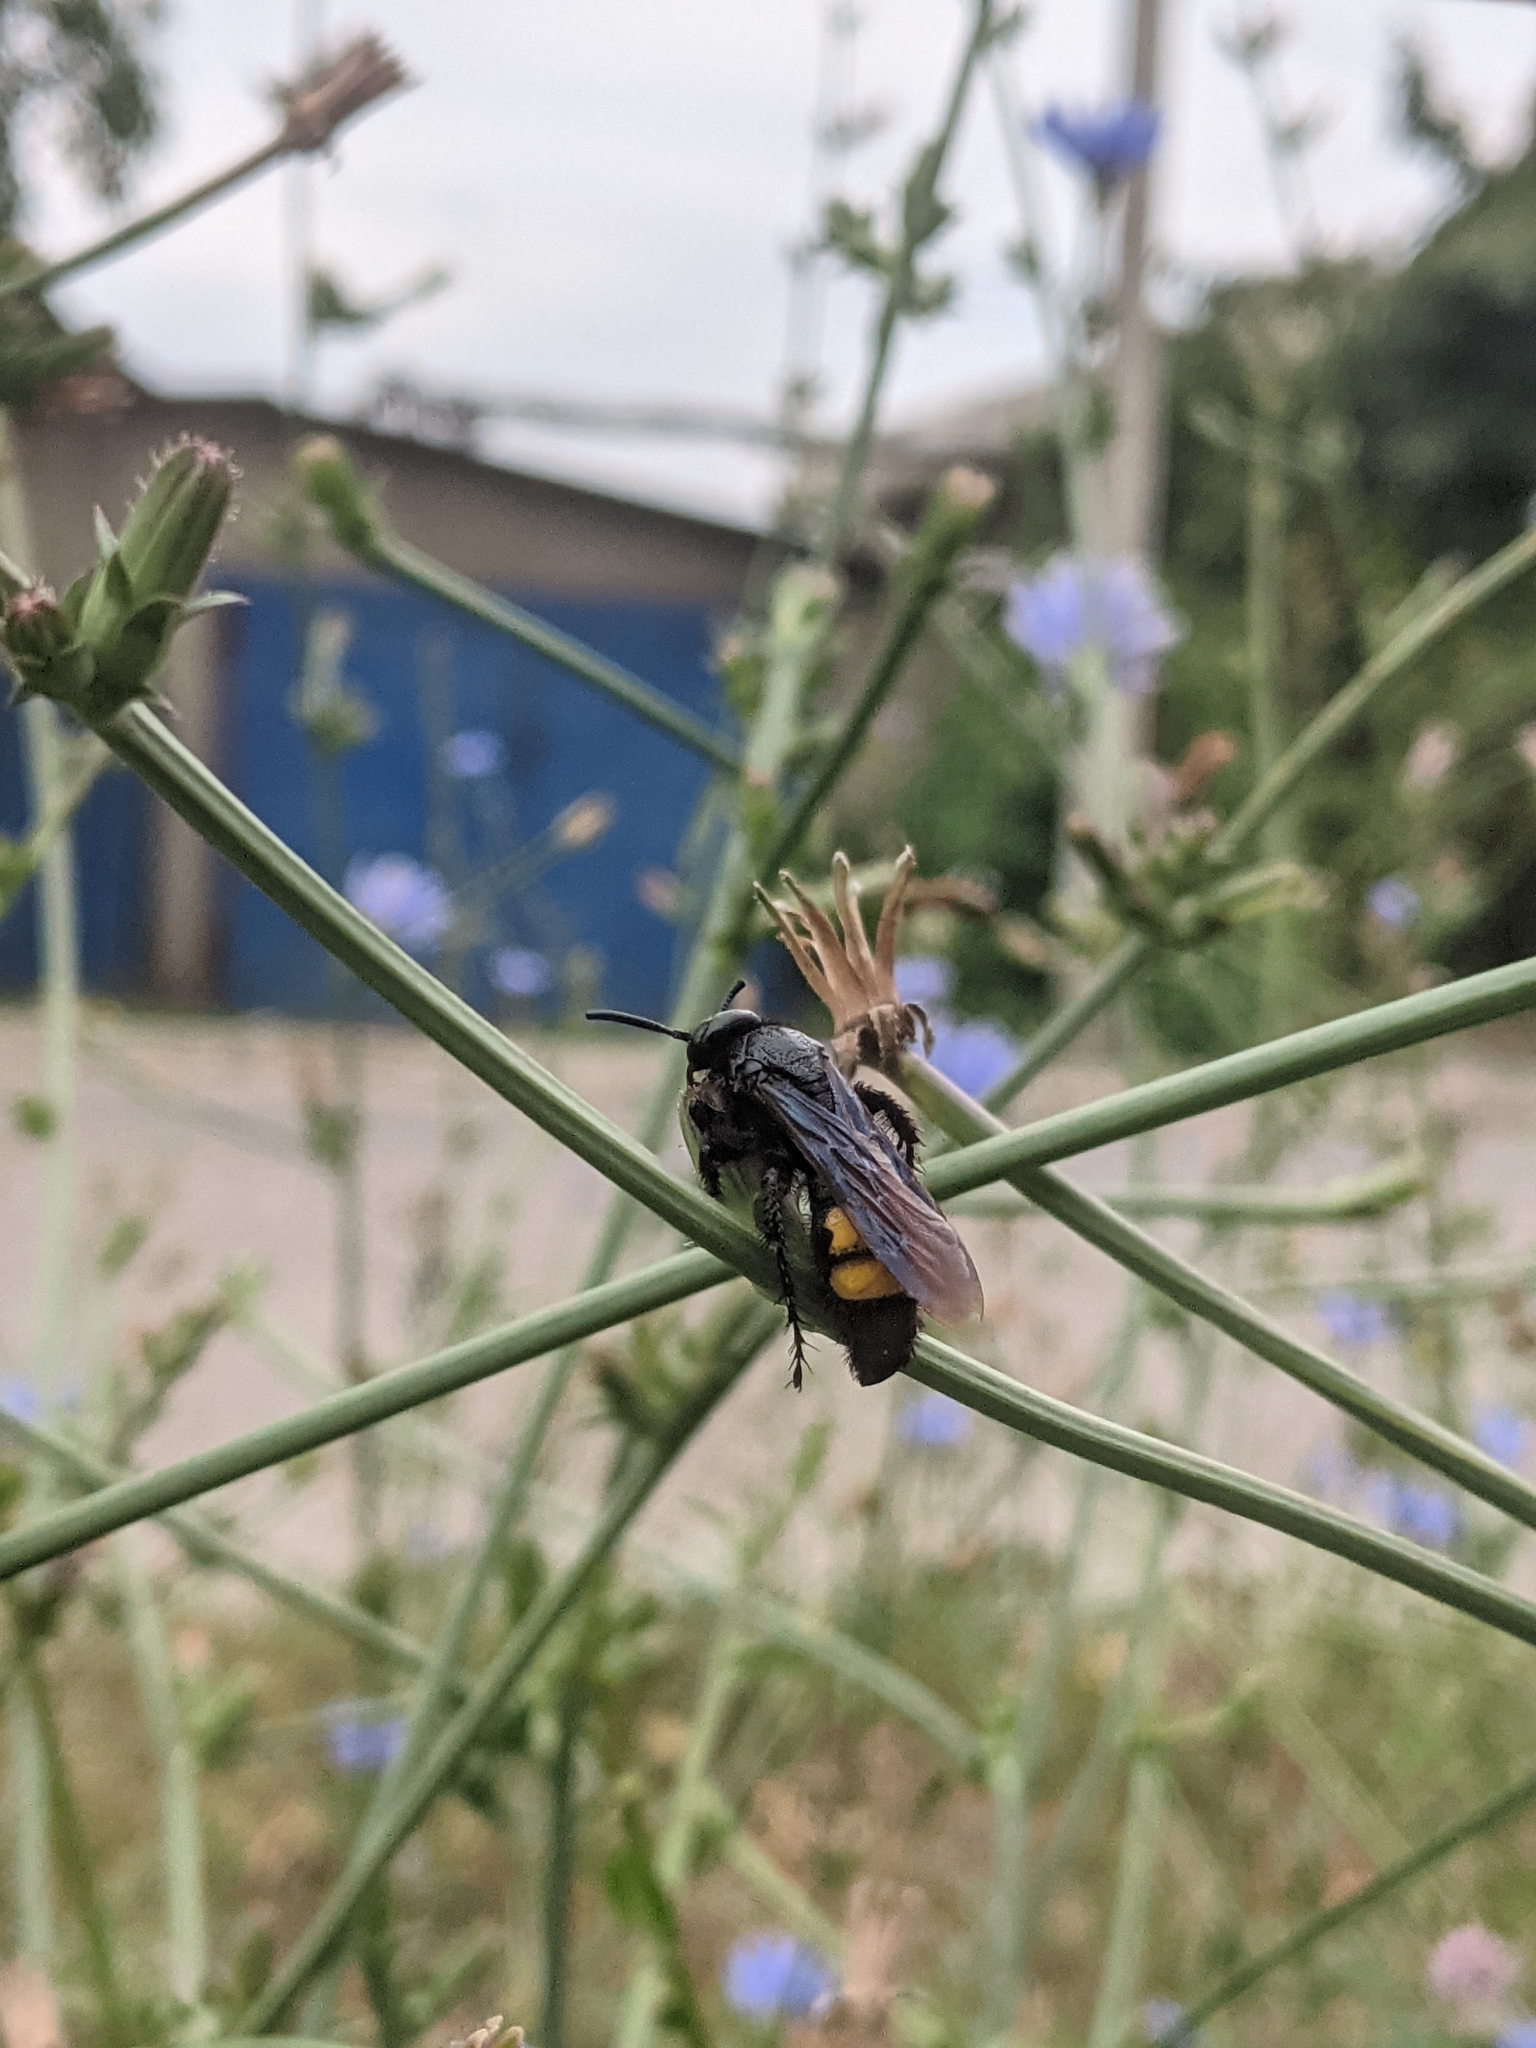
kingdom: Animalia
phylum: Arthropoda
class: Insecta
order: Hymenoptera
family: Scoliidae
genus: Scolia
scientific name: Scolia hirta
